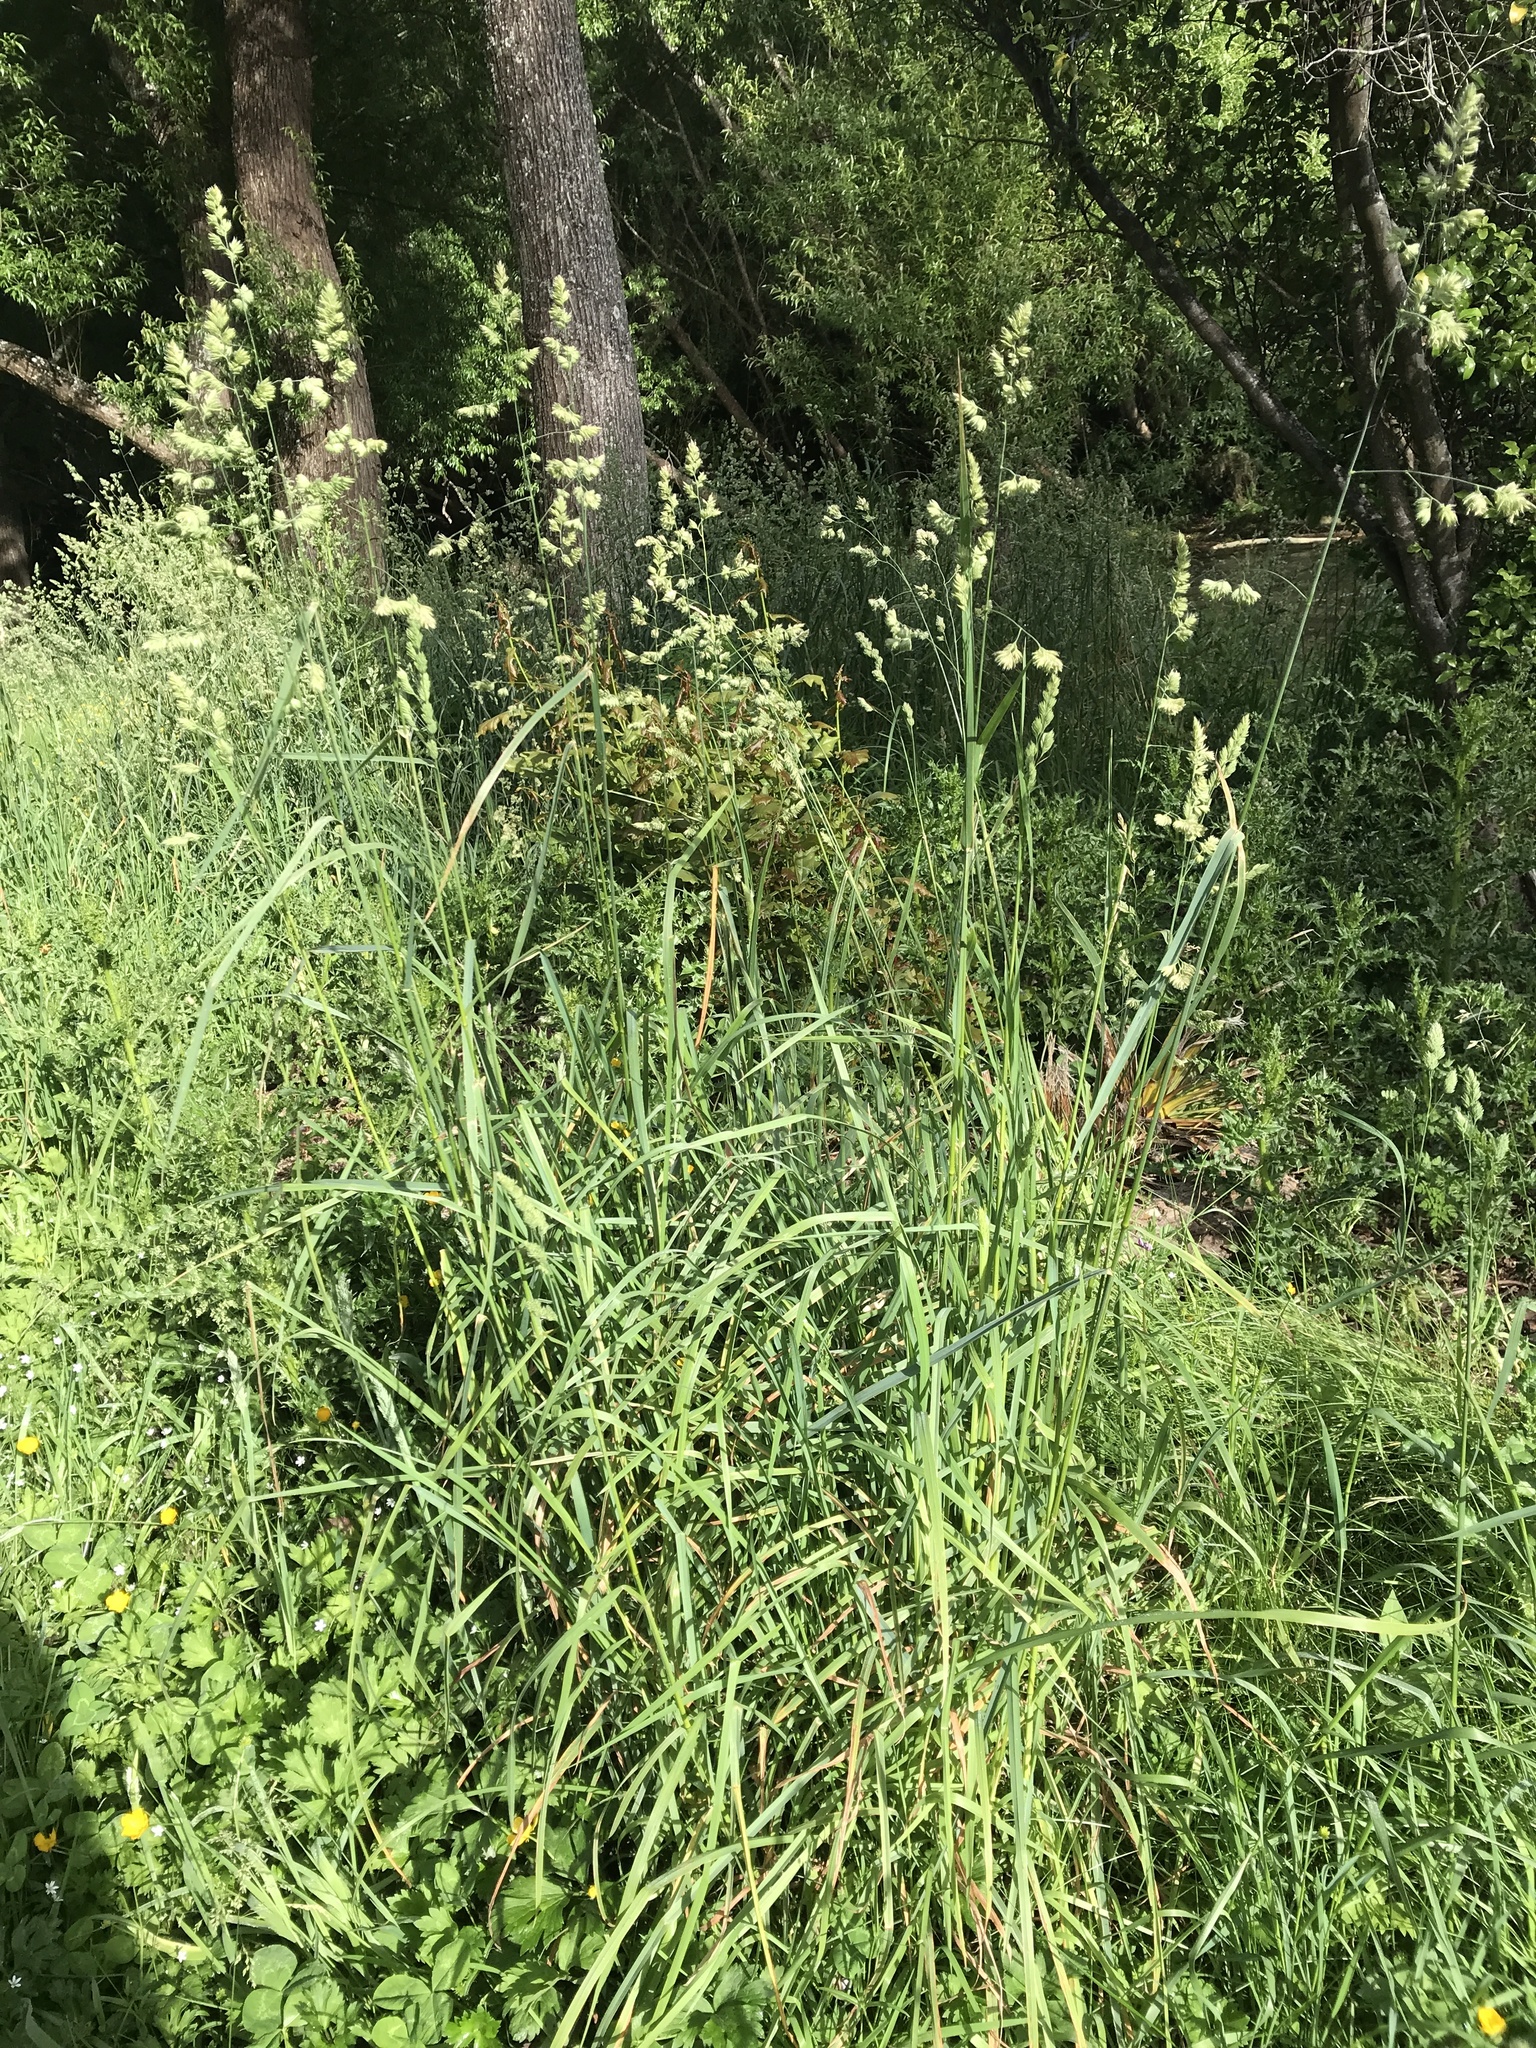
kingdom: Plantae
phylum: Tracheophyta
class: Liliopsida
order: Poales
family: Poaceae
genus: Dactylis
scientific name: Dactylis glomerata
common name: Orchardgrass
